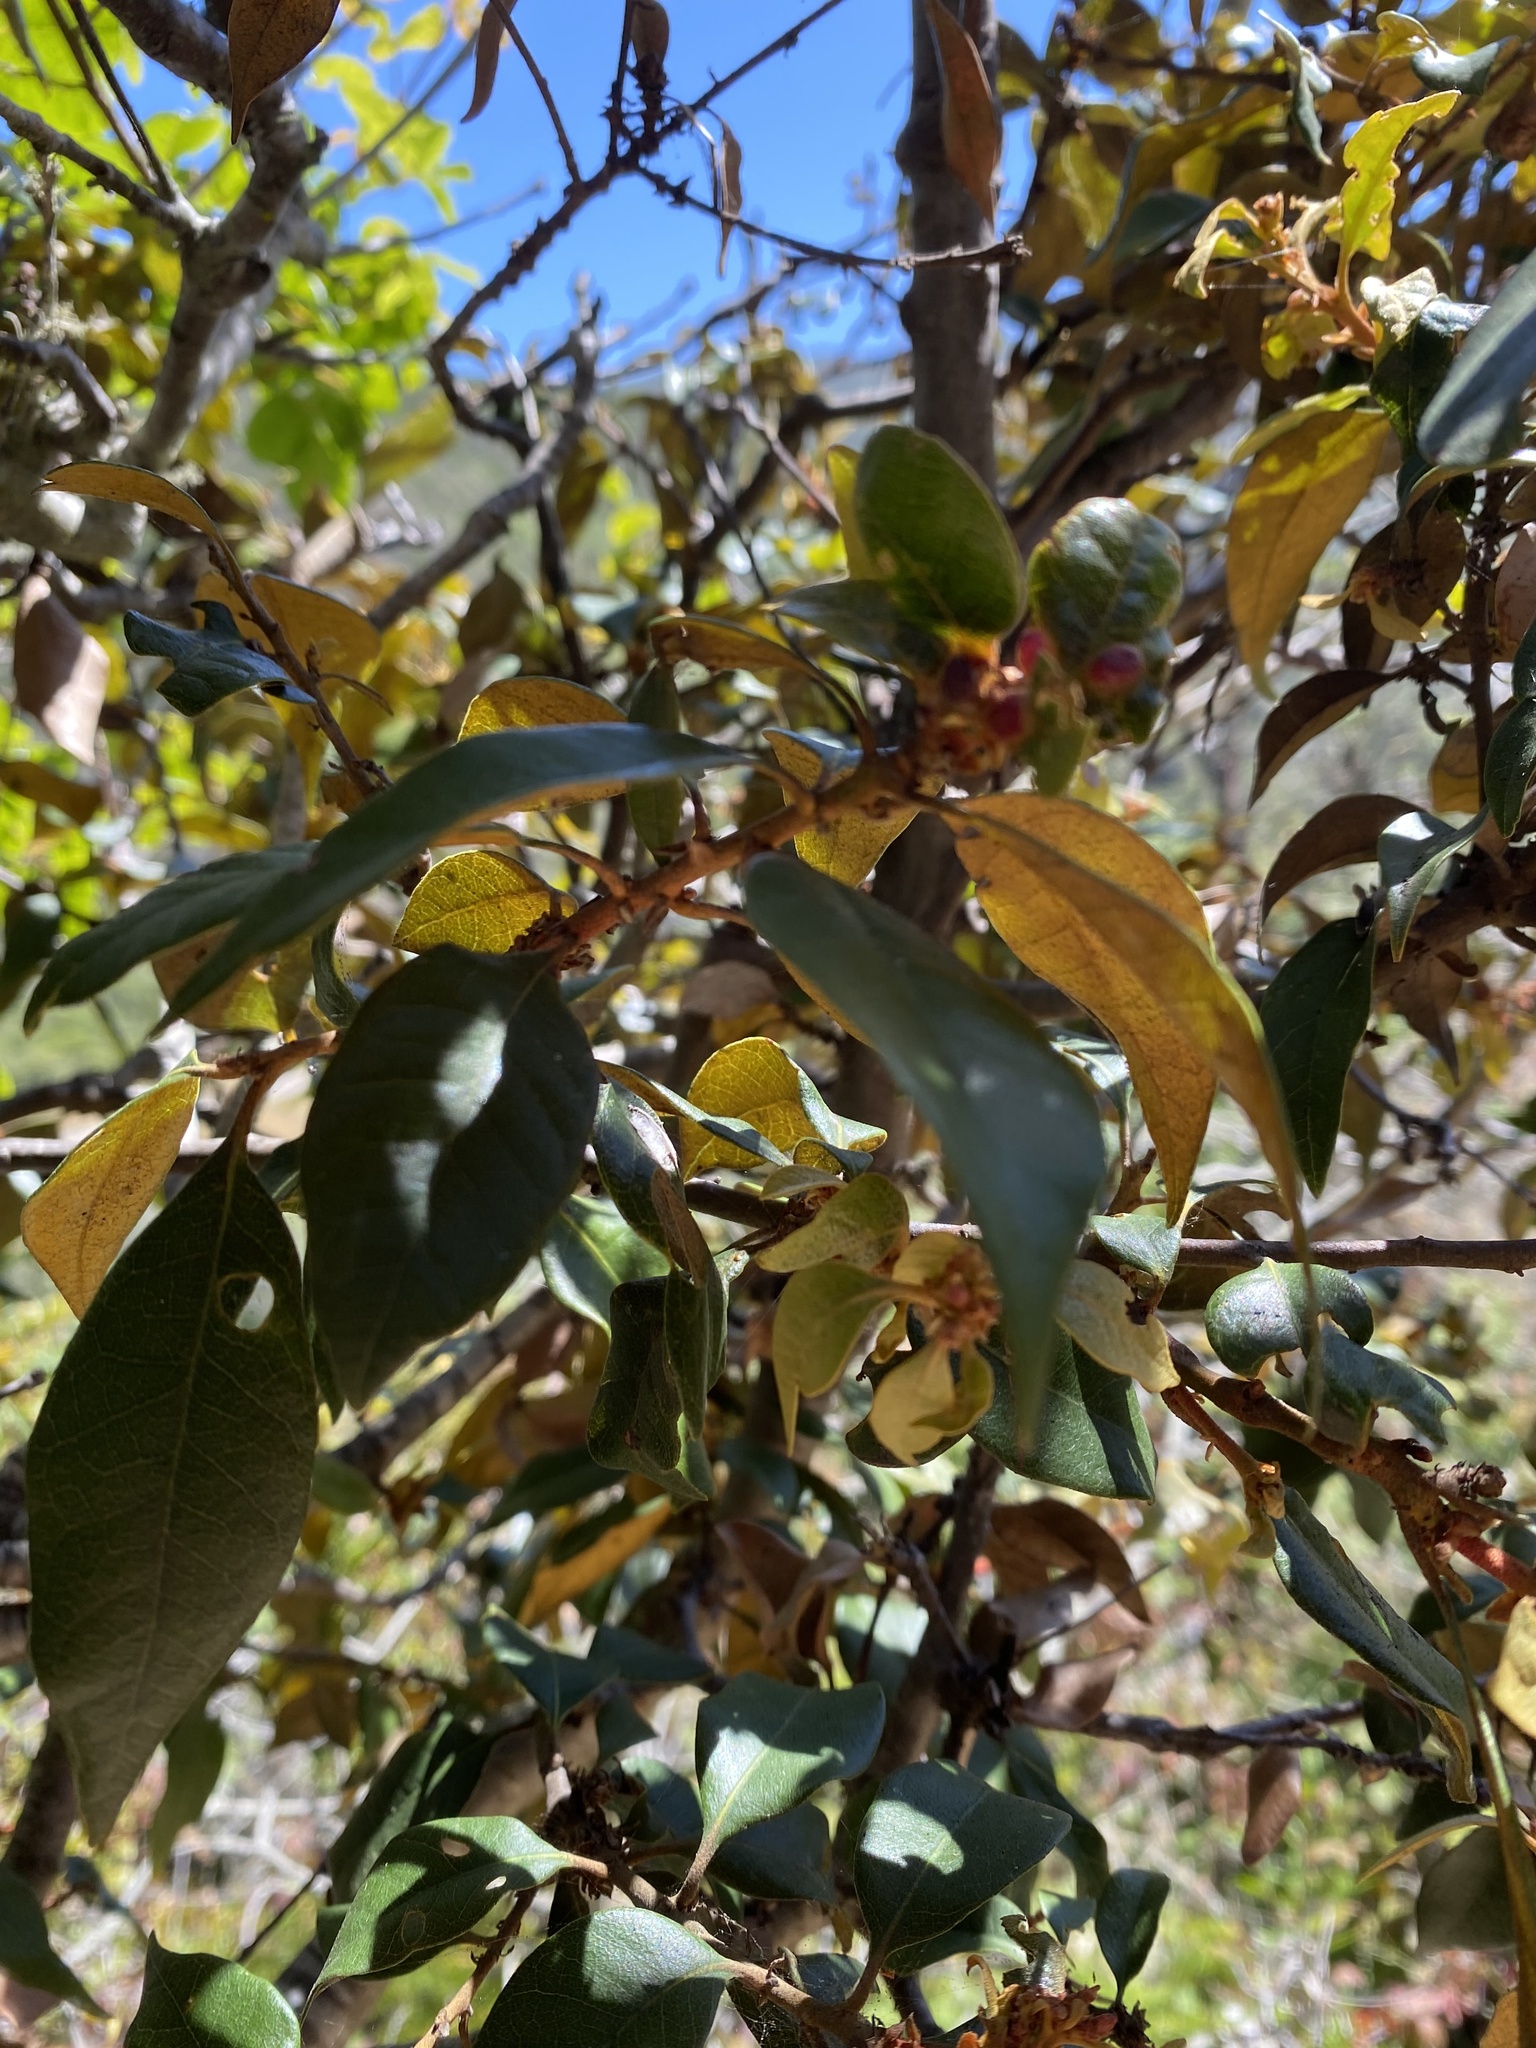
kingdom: Plantae
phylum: Tracheophyta
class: Magnoliopsida
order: Fagales
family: Fagaceae
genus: Chrysolepis
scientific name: Chrysolepis chrysophylla
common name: Giant chinquapin
